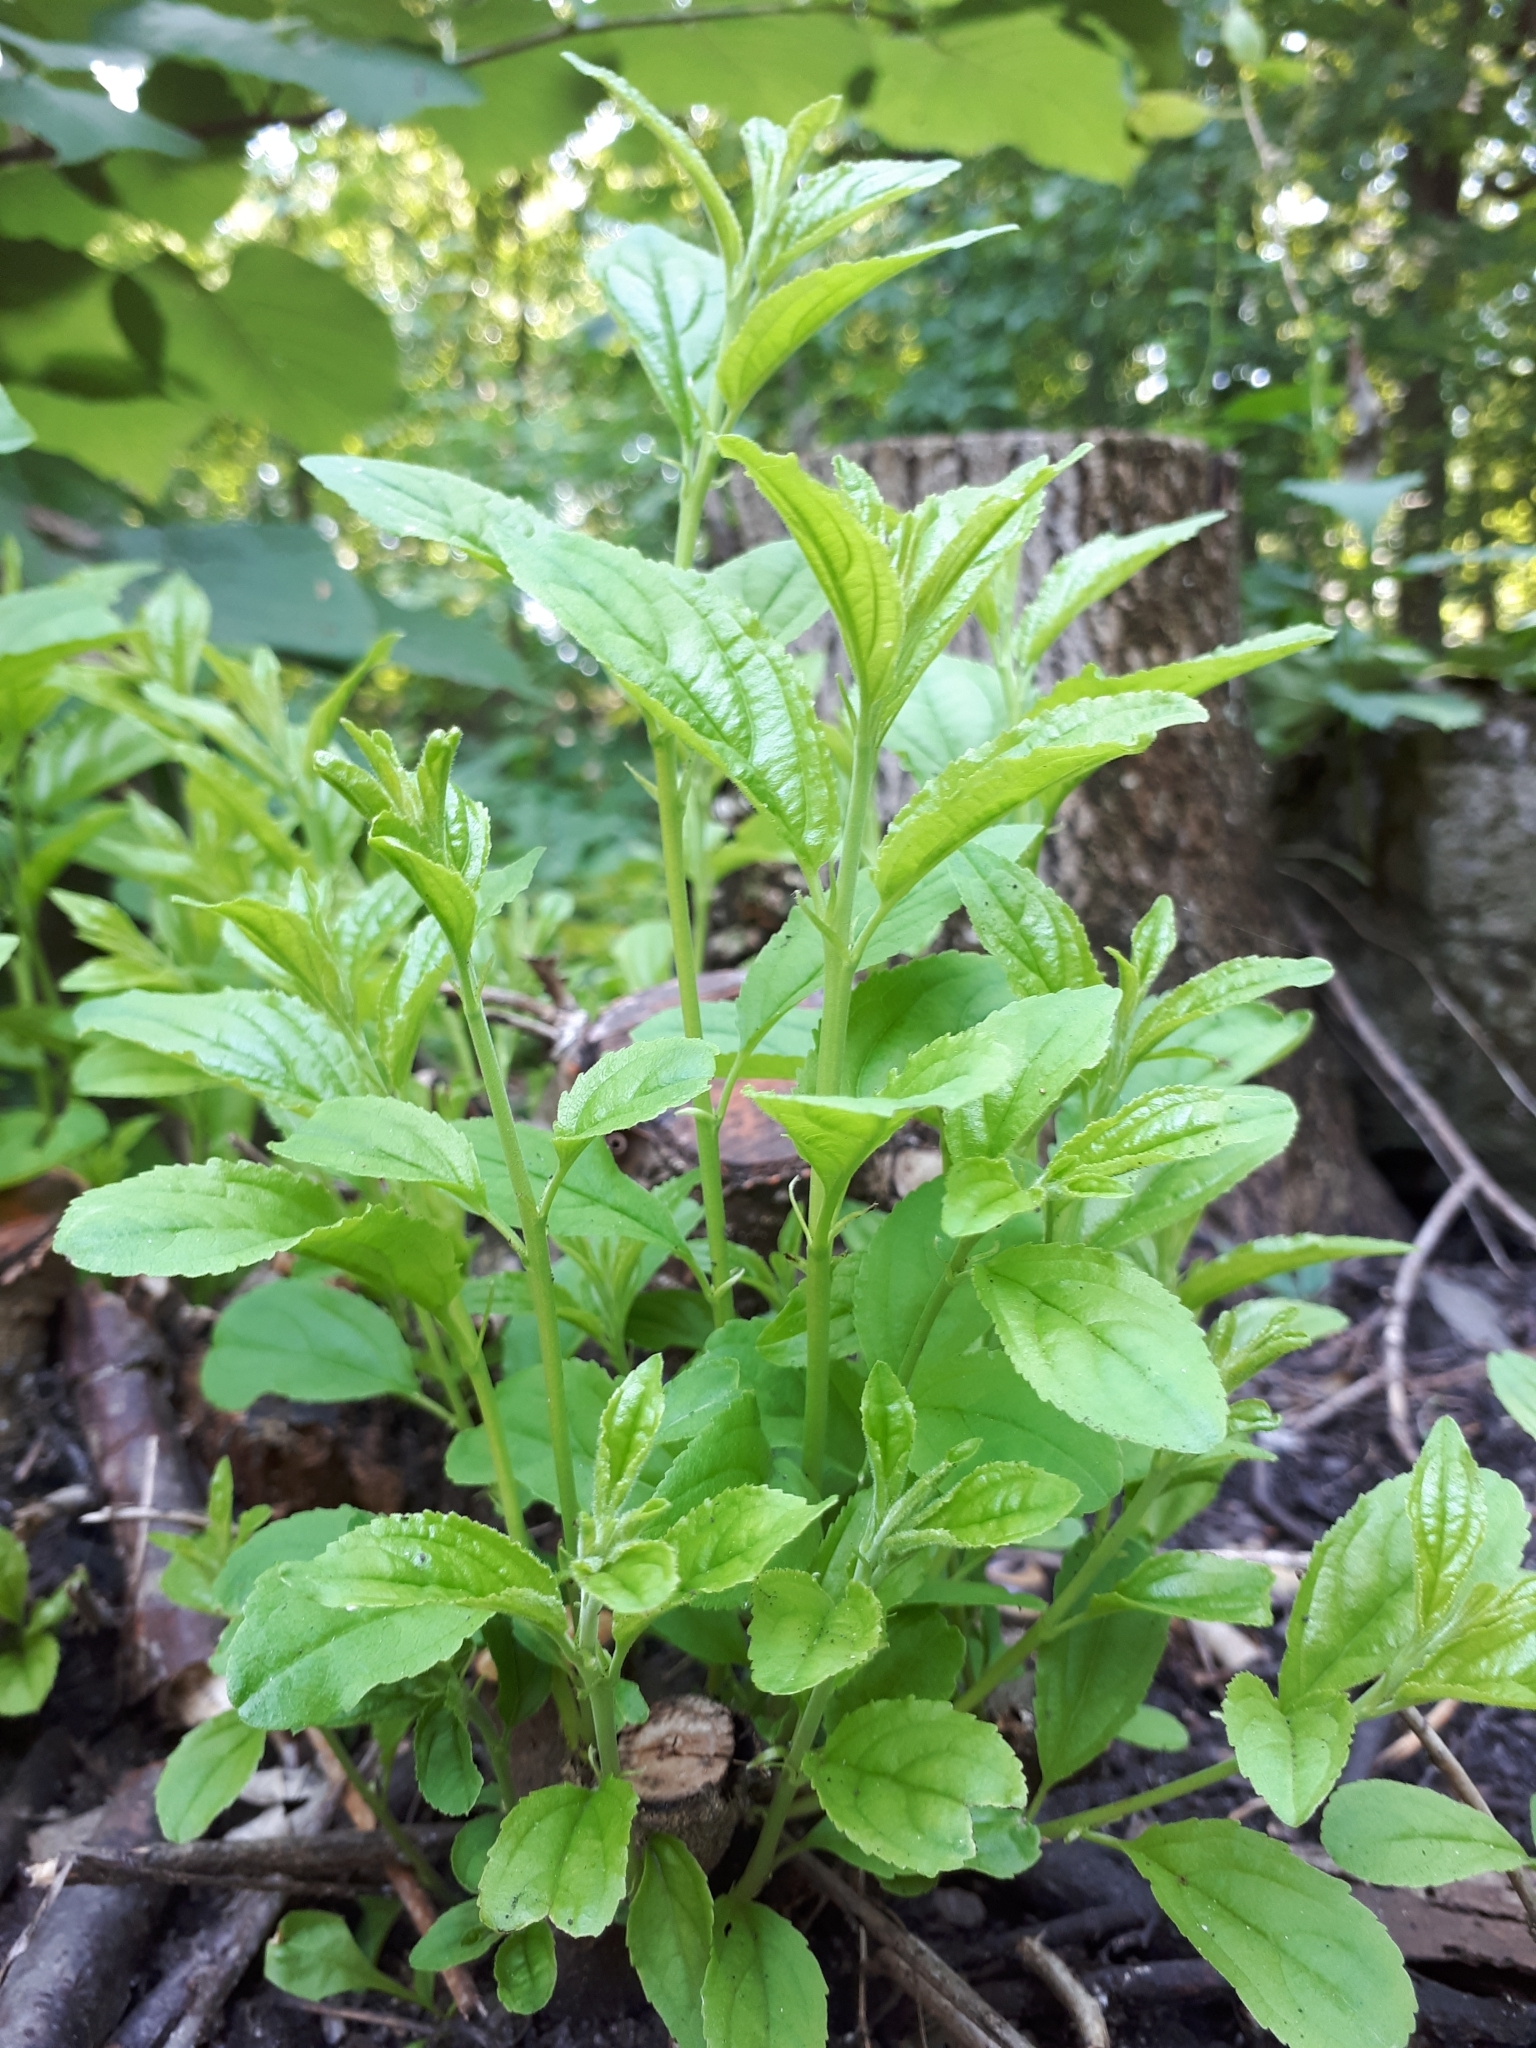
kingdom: Plantae
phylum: Tracheophyta
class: Magnoliopsida
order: Rosales
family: Rhamnaceae
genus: Rhamnus
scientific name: Rhamnus cathartica
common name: Common buckthorn
